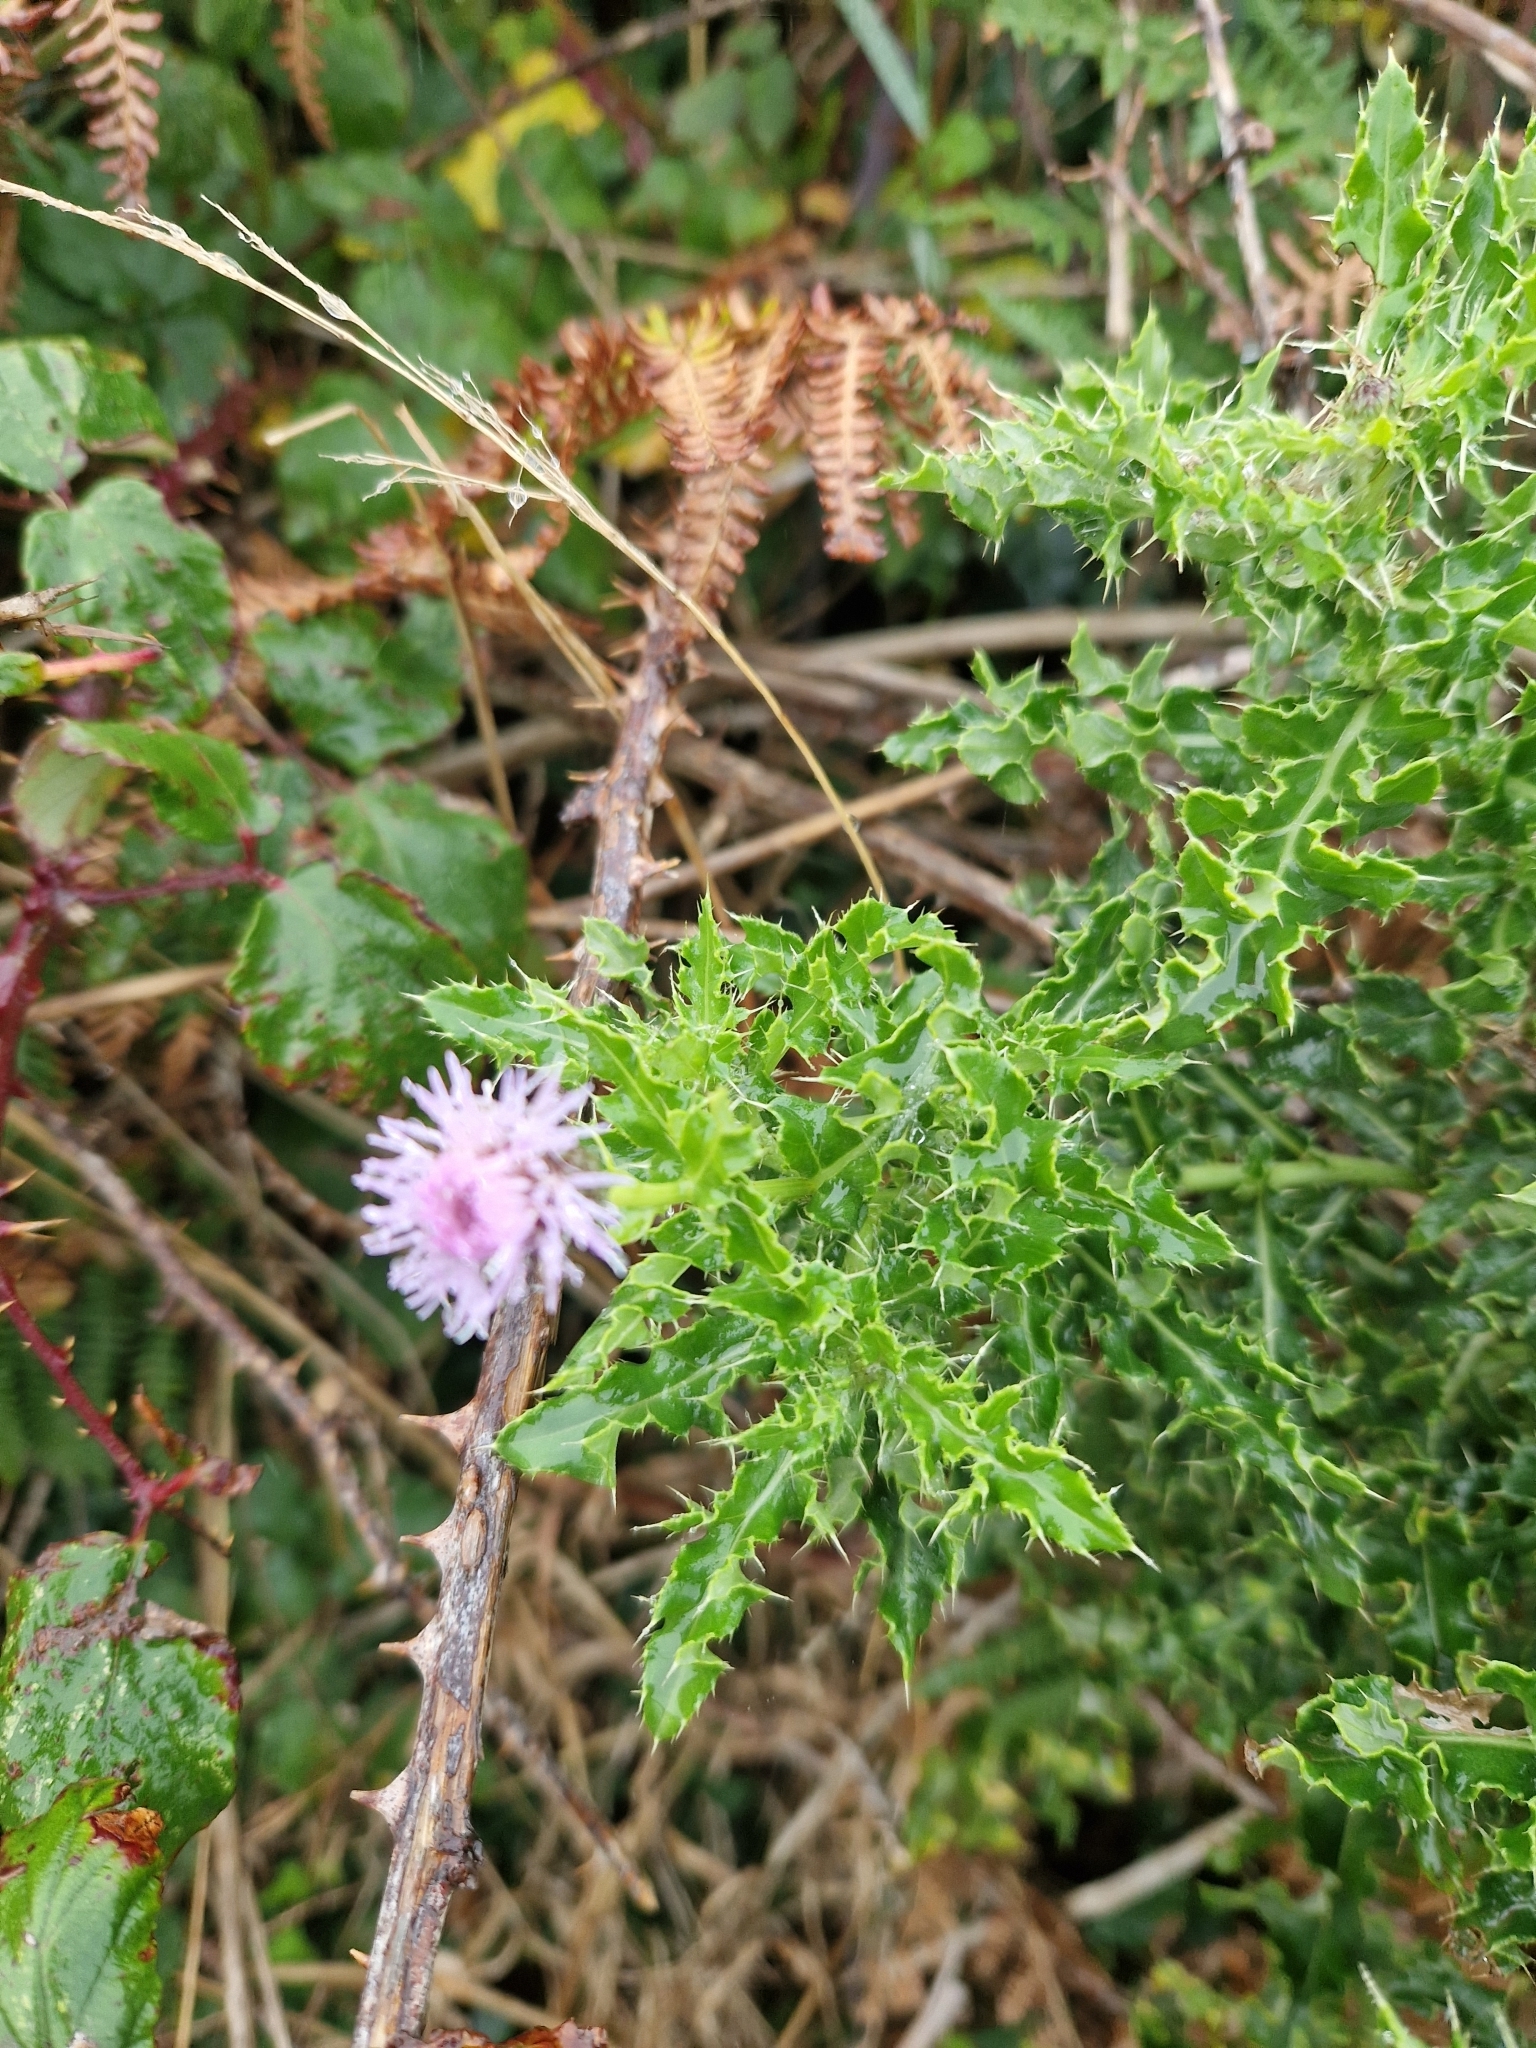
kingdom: Plantae
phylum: Tracheophyta
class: Magnoliopsida
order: Asterales
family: Asteraceae
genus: Cirsium
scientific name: Cirsium arvense
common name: Creeping thistle
